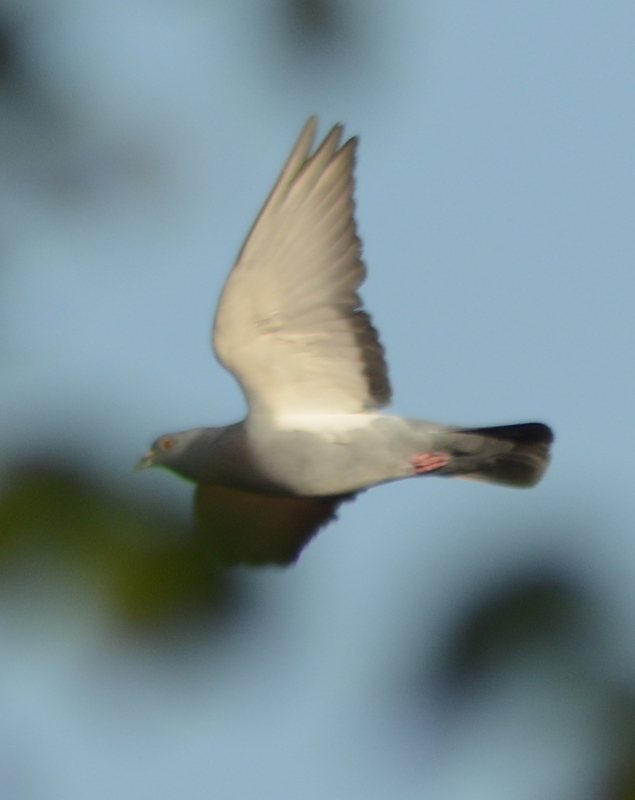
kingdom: Animalia
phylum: Chordata
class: Aves
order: Columbiformes
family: Columbidae
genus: Columba
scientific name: Columba livia
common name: Rock pigeon
